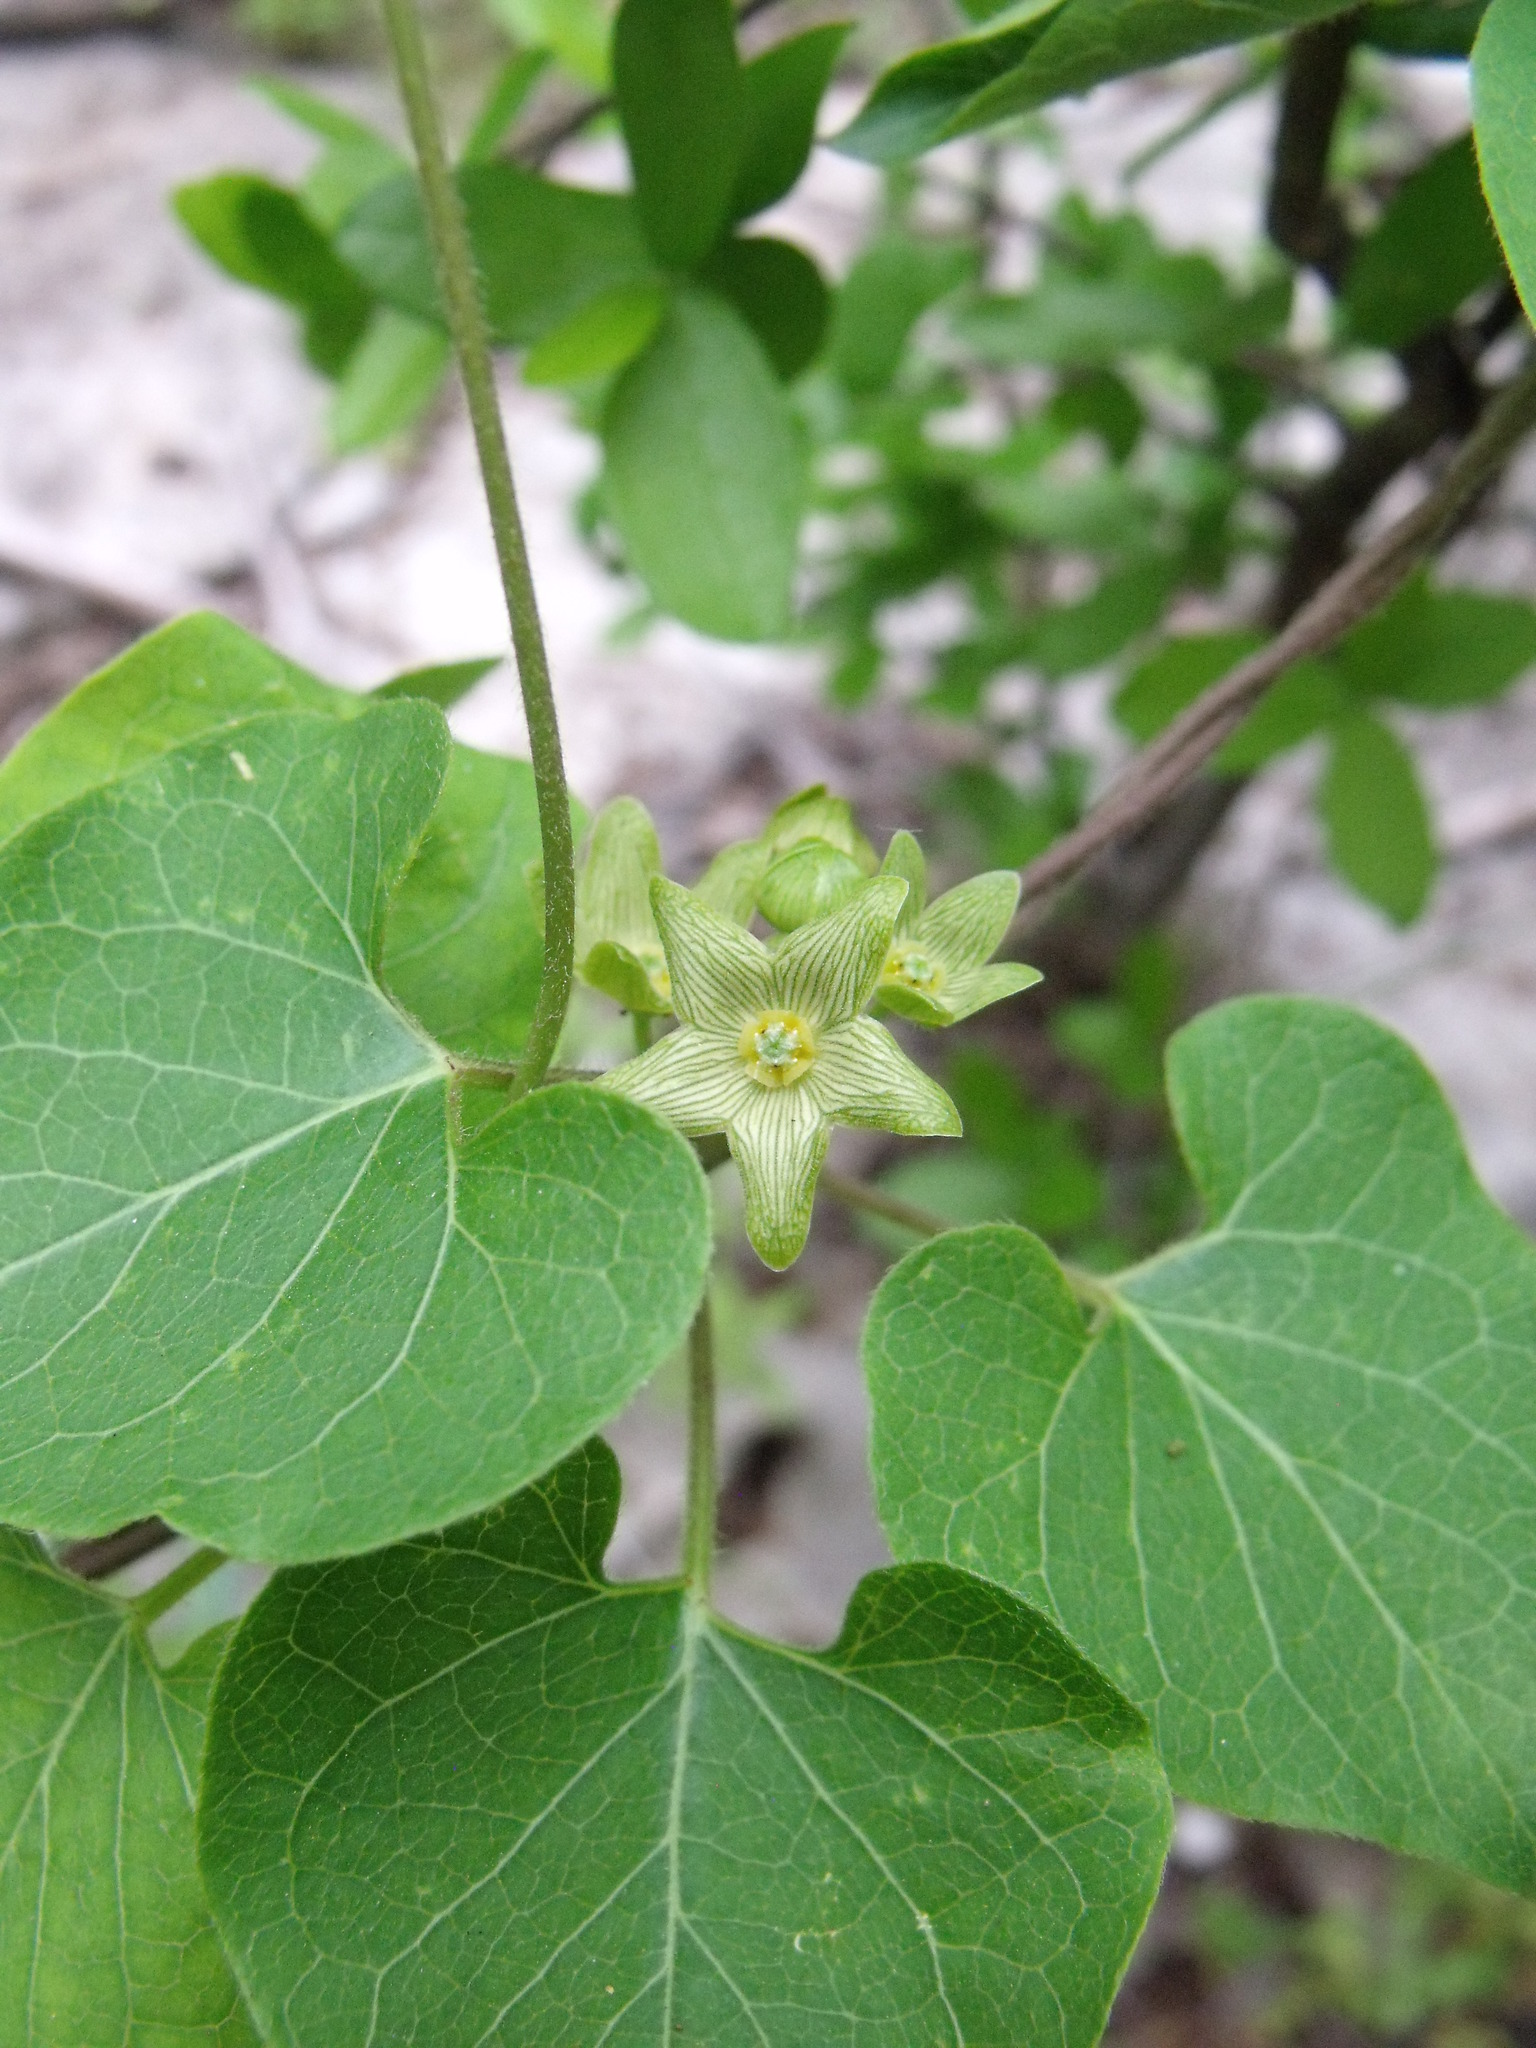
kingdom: Plantae
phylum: Tracheophyta
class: Magnoliopsida
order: Gentianales
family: Apocynaceae
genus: Matelea
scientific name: Matelea edwardsensis
